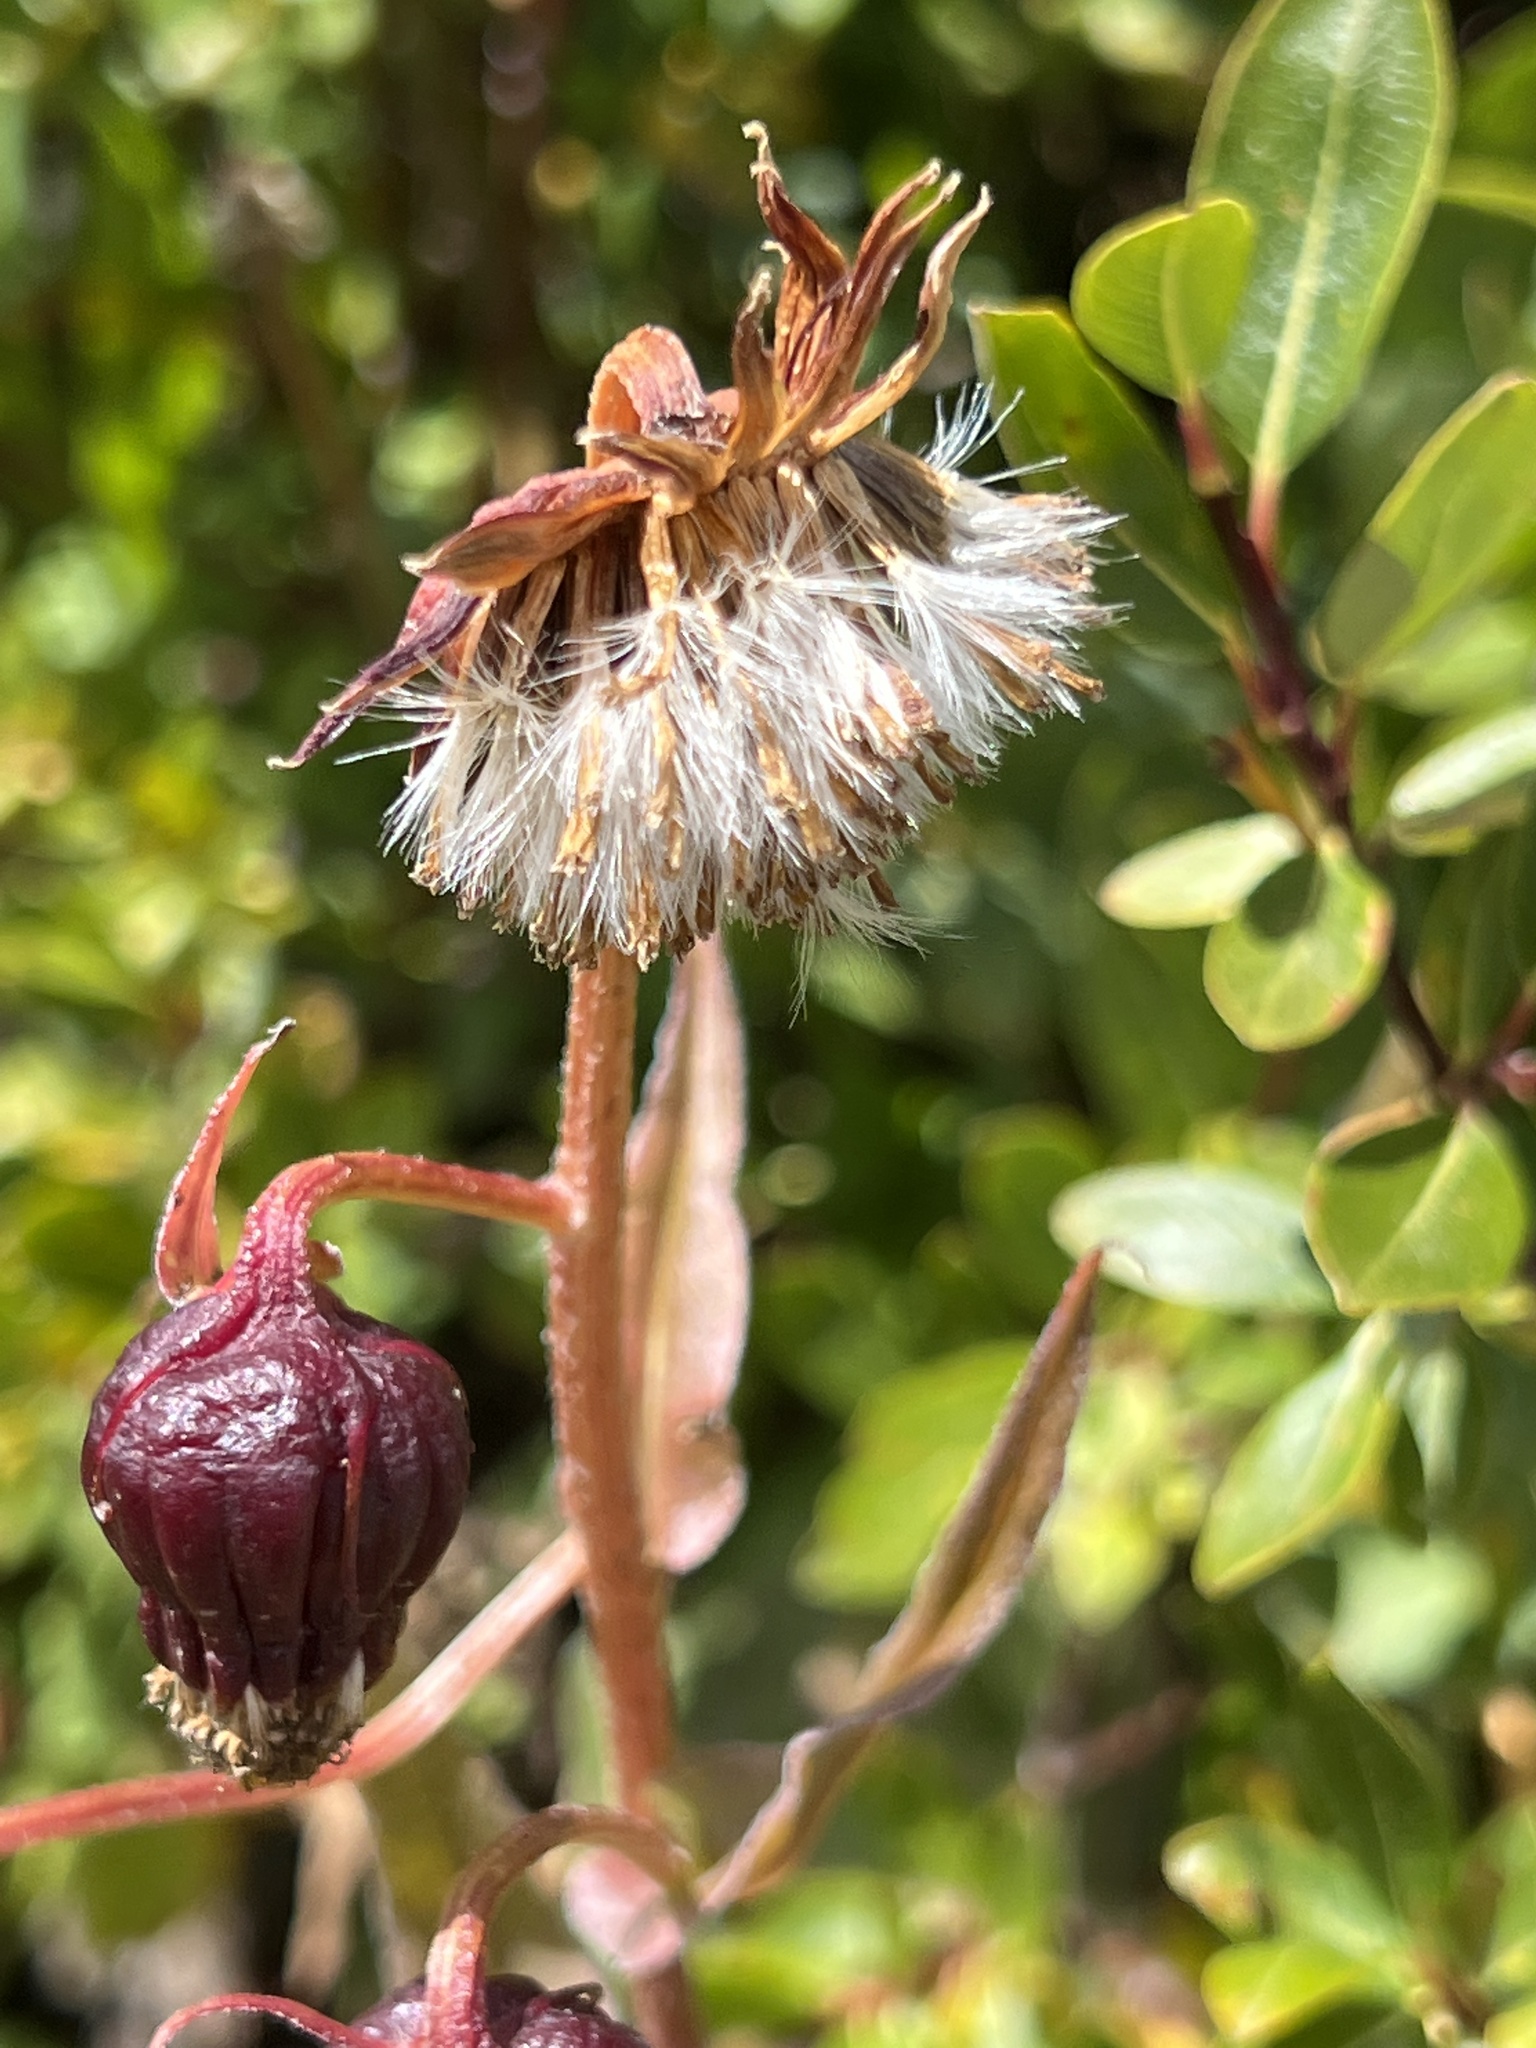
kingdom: Plantae
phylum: Tracheophyta
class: Magnoliopsida
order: Asterales
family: Asteraceae
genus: Senecio
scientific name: Senecio bigelovii
